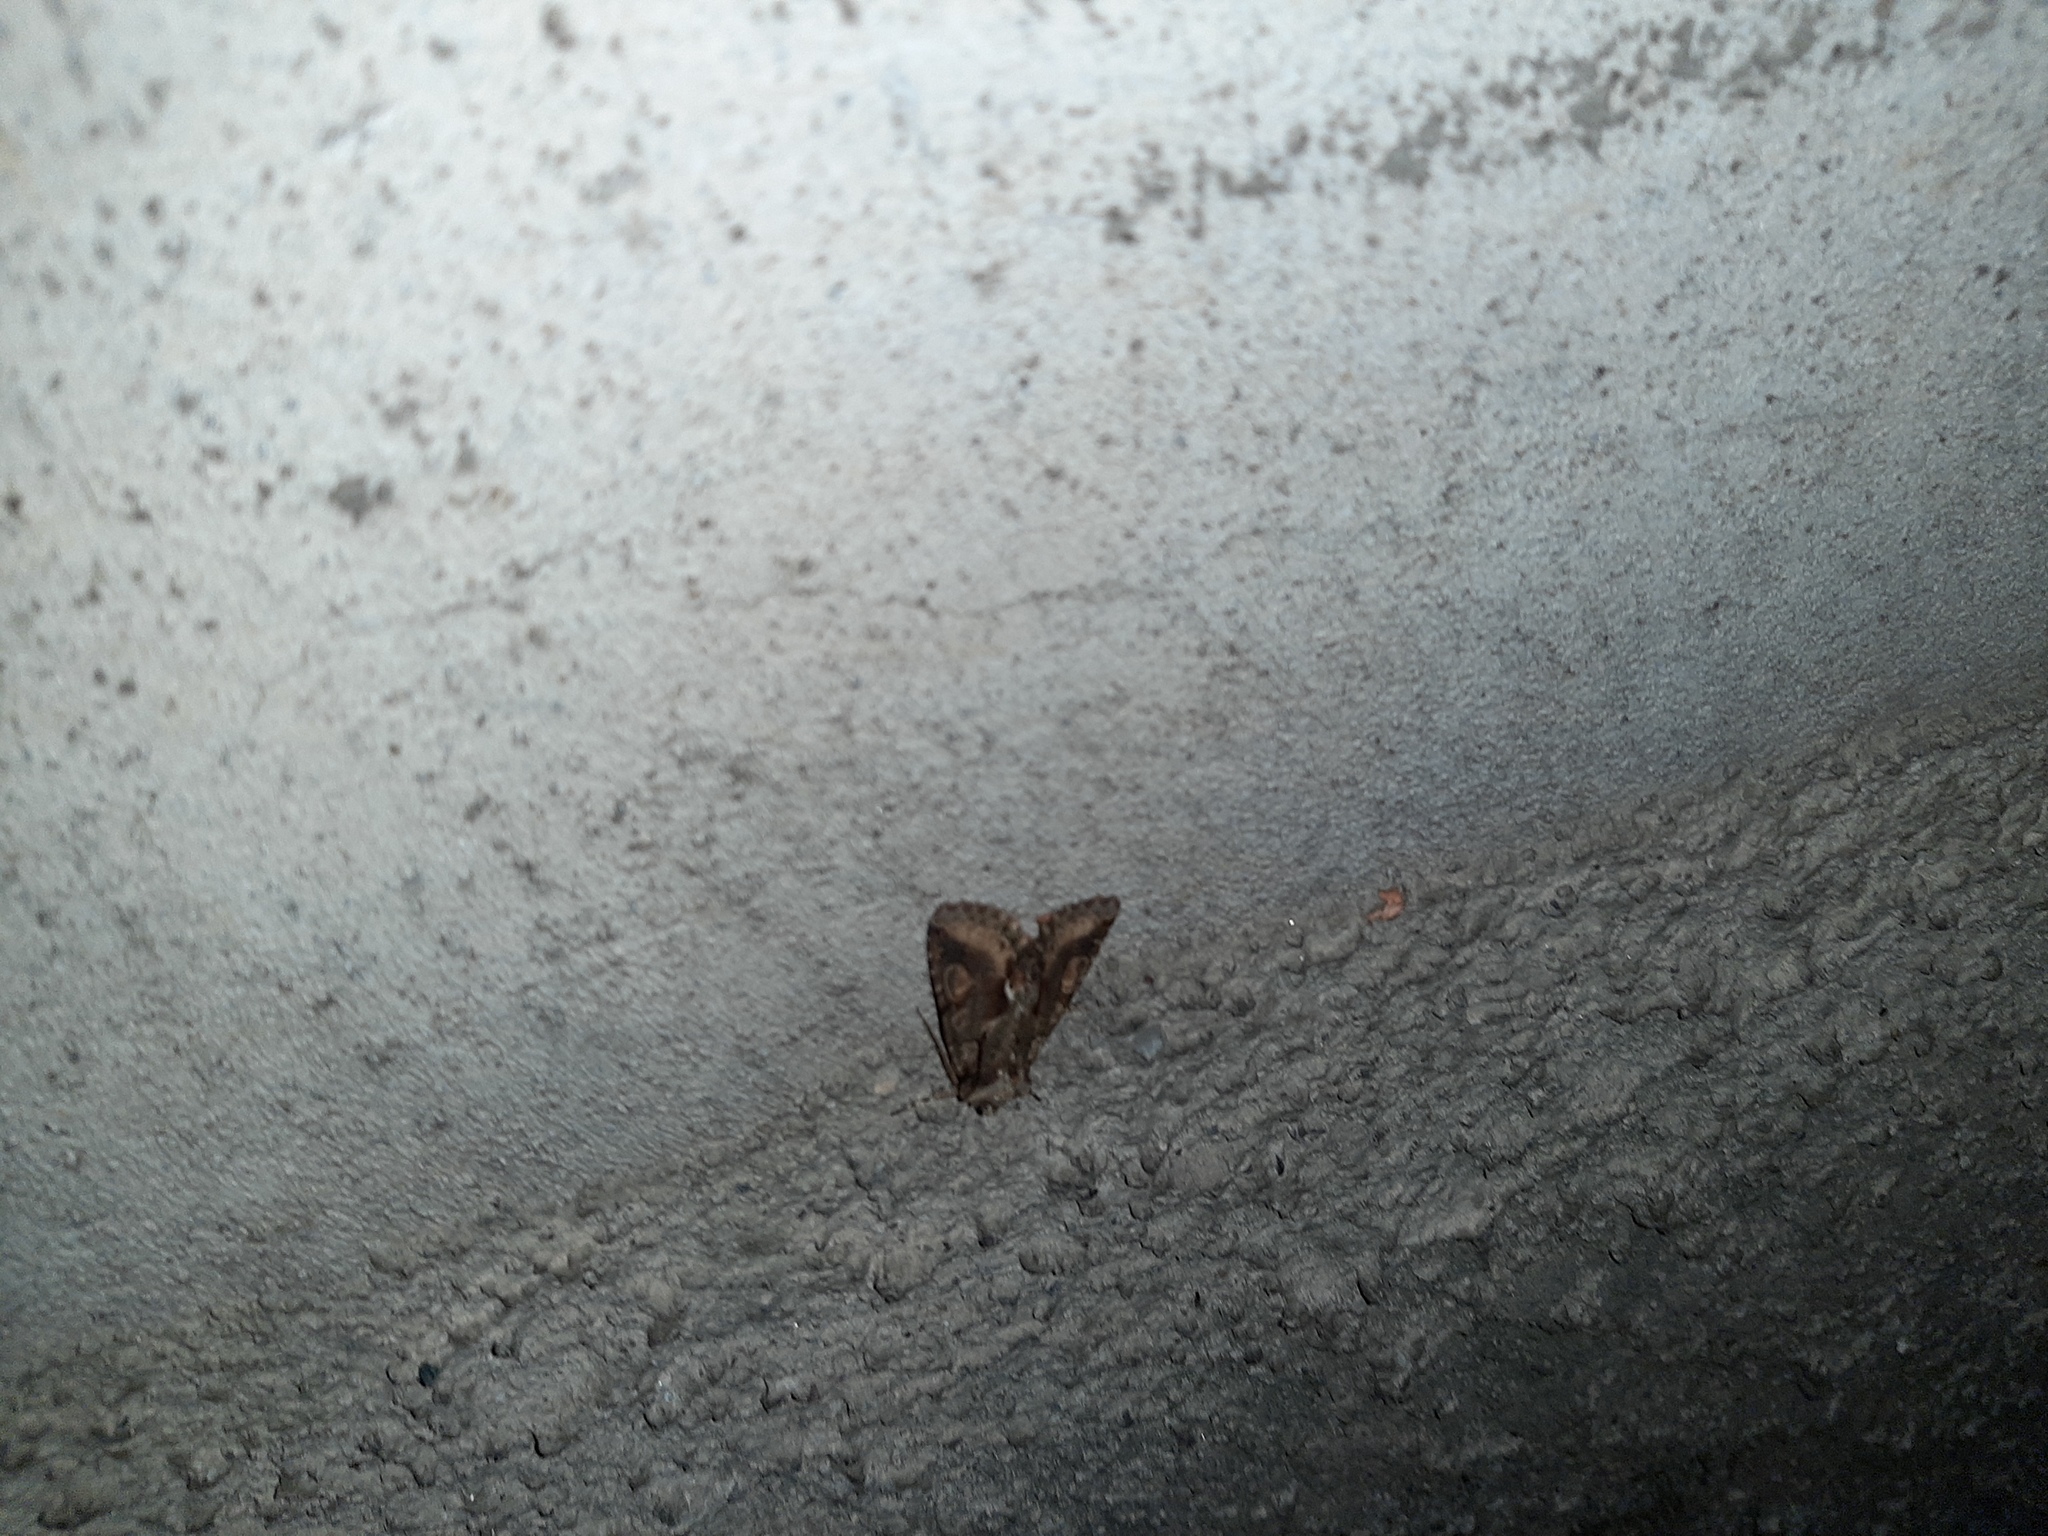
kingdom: Animalia
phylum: Arthropoda
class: Insecta
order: Lepidoptera
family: Noctuidae
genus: Allophyes
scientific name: Allophyes oxyacanthae
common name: Green-brindled crescent
